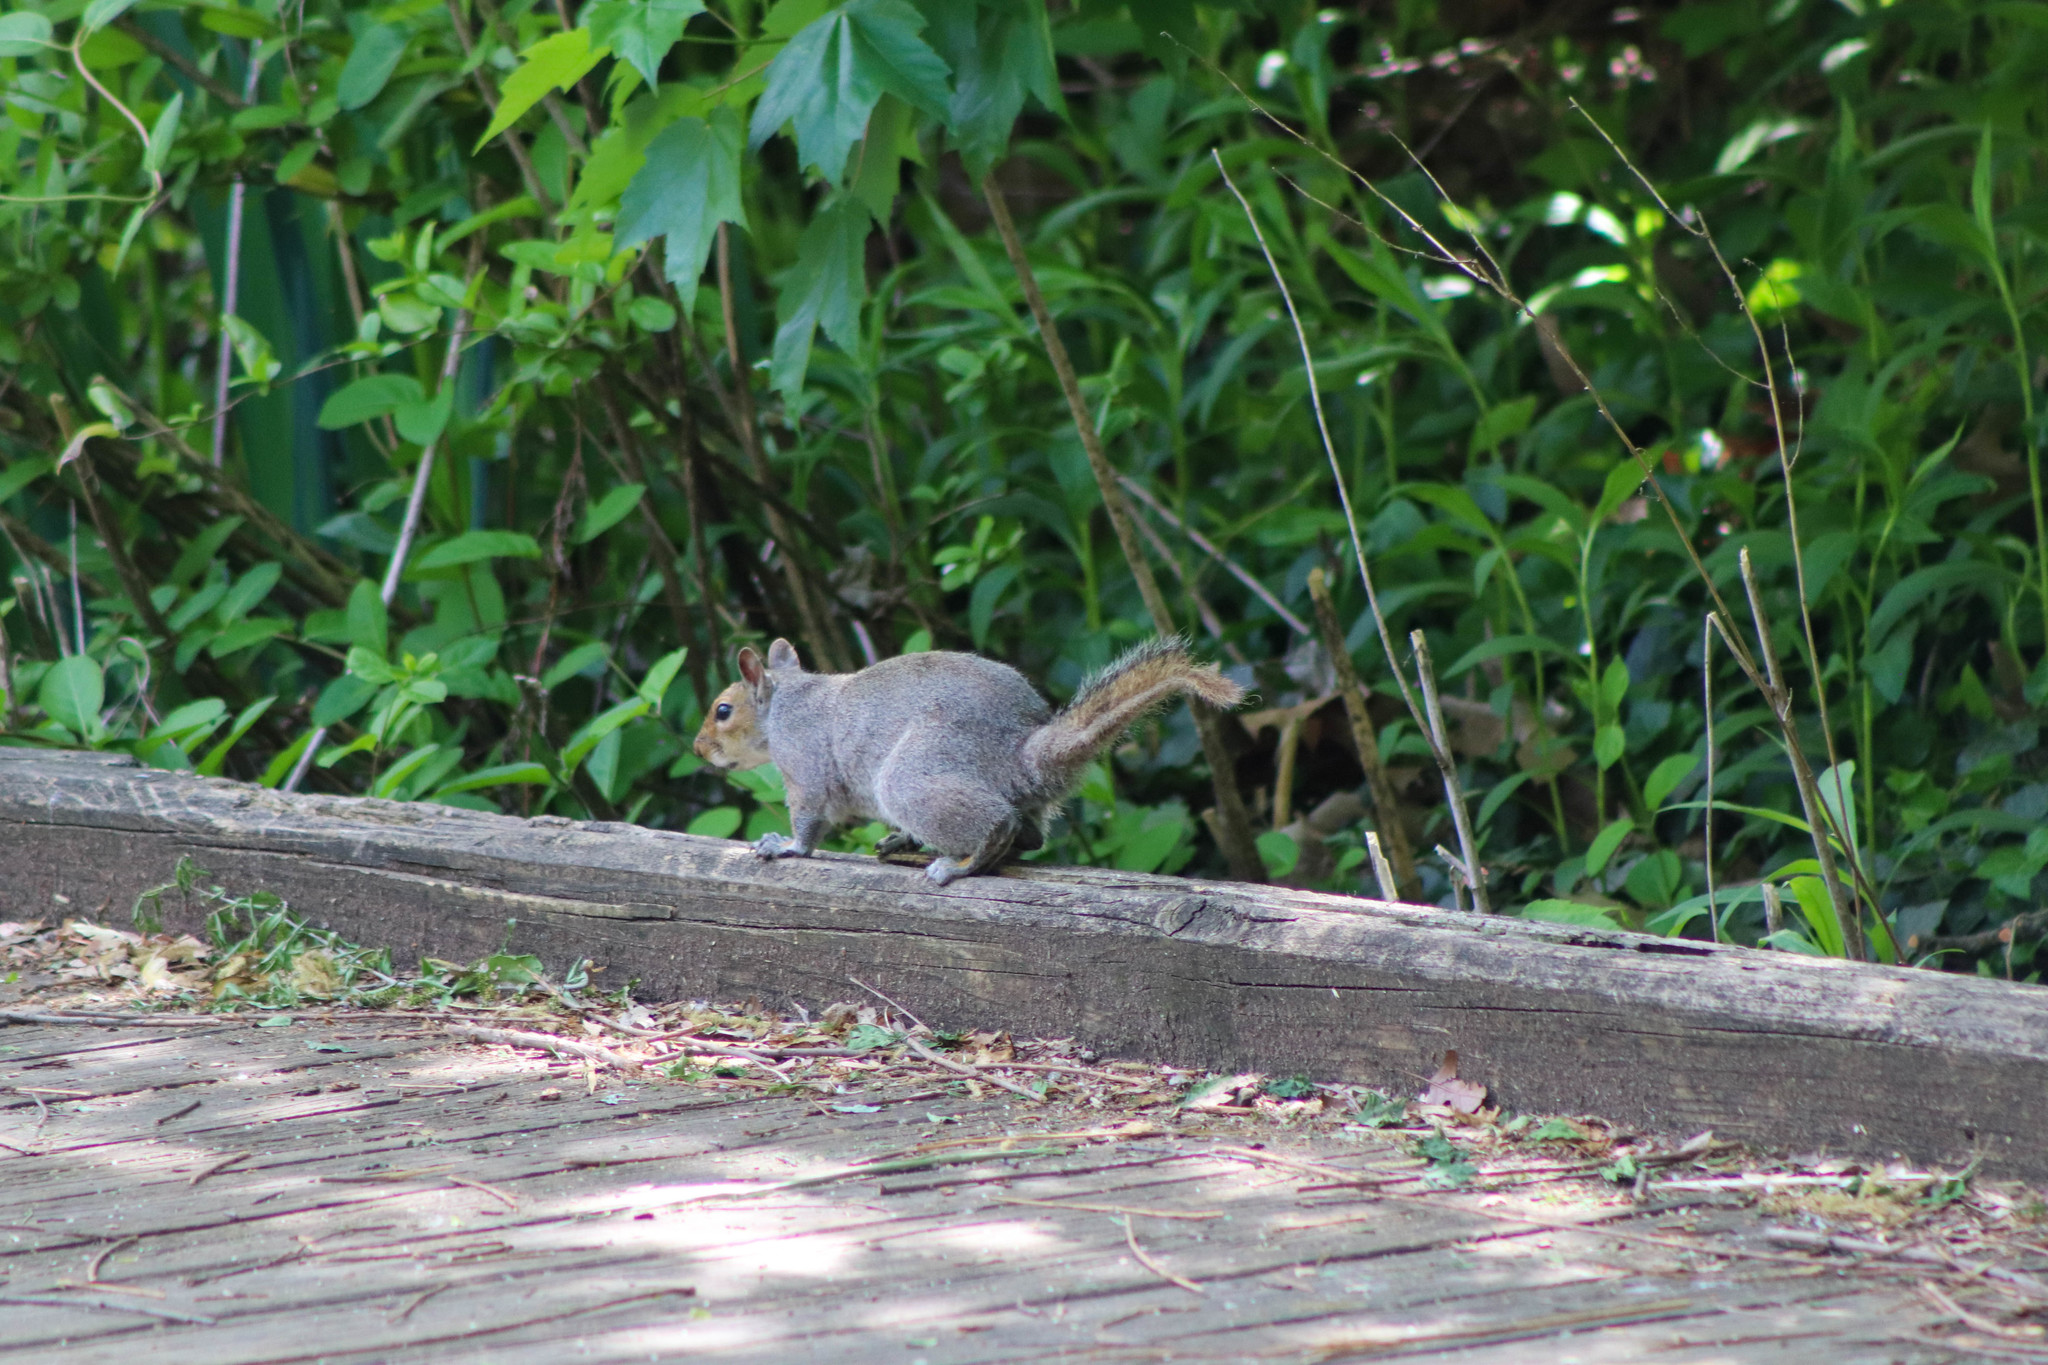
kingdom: Animalia
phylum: Chordata
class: Mammalia
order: Rodentia
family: Sciuridae
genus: Sciurus
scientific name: Sciurus carolinensis
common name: Eastern gray squirrel
